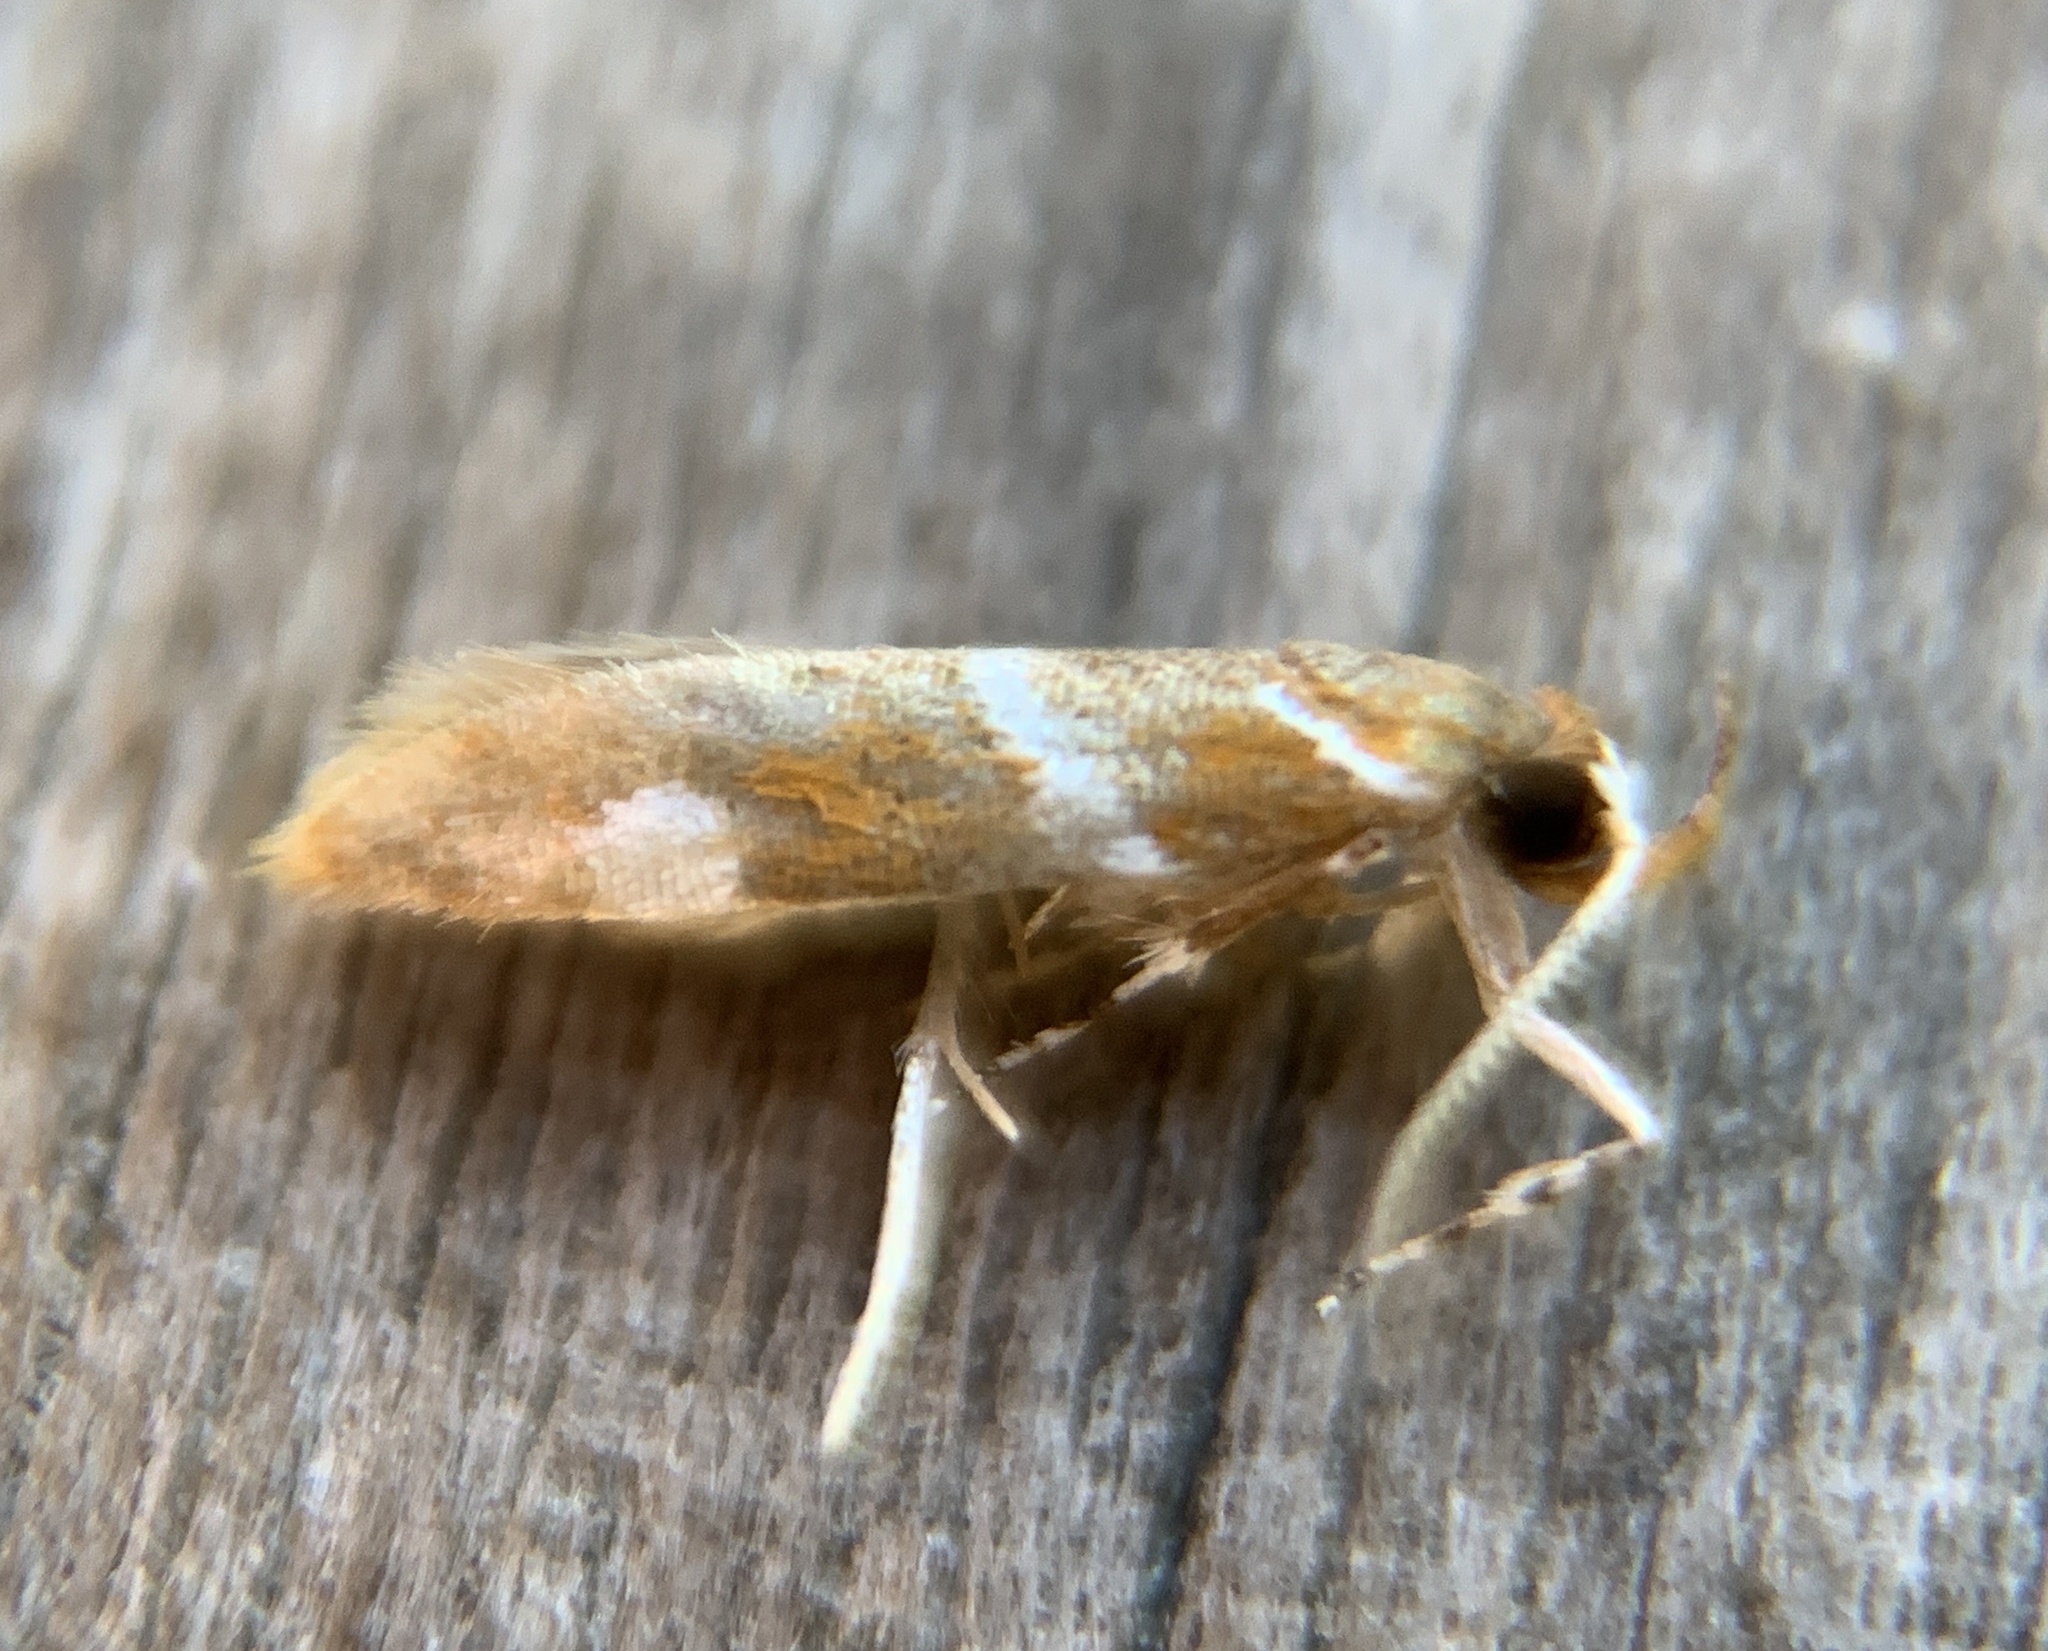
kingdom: Animalia
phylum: Arthropoda
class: Insecta
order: Lepidoptera
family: Oecophoridae
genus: Promalactis
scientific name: Promalactis suzukiella
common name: Moth
